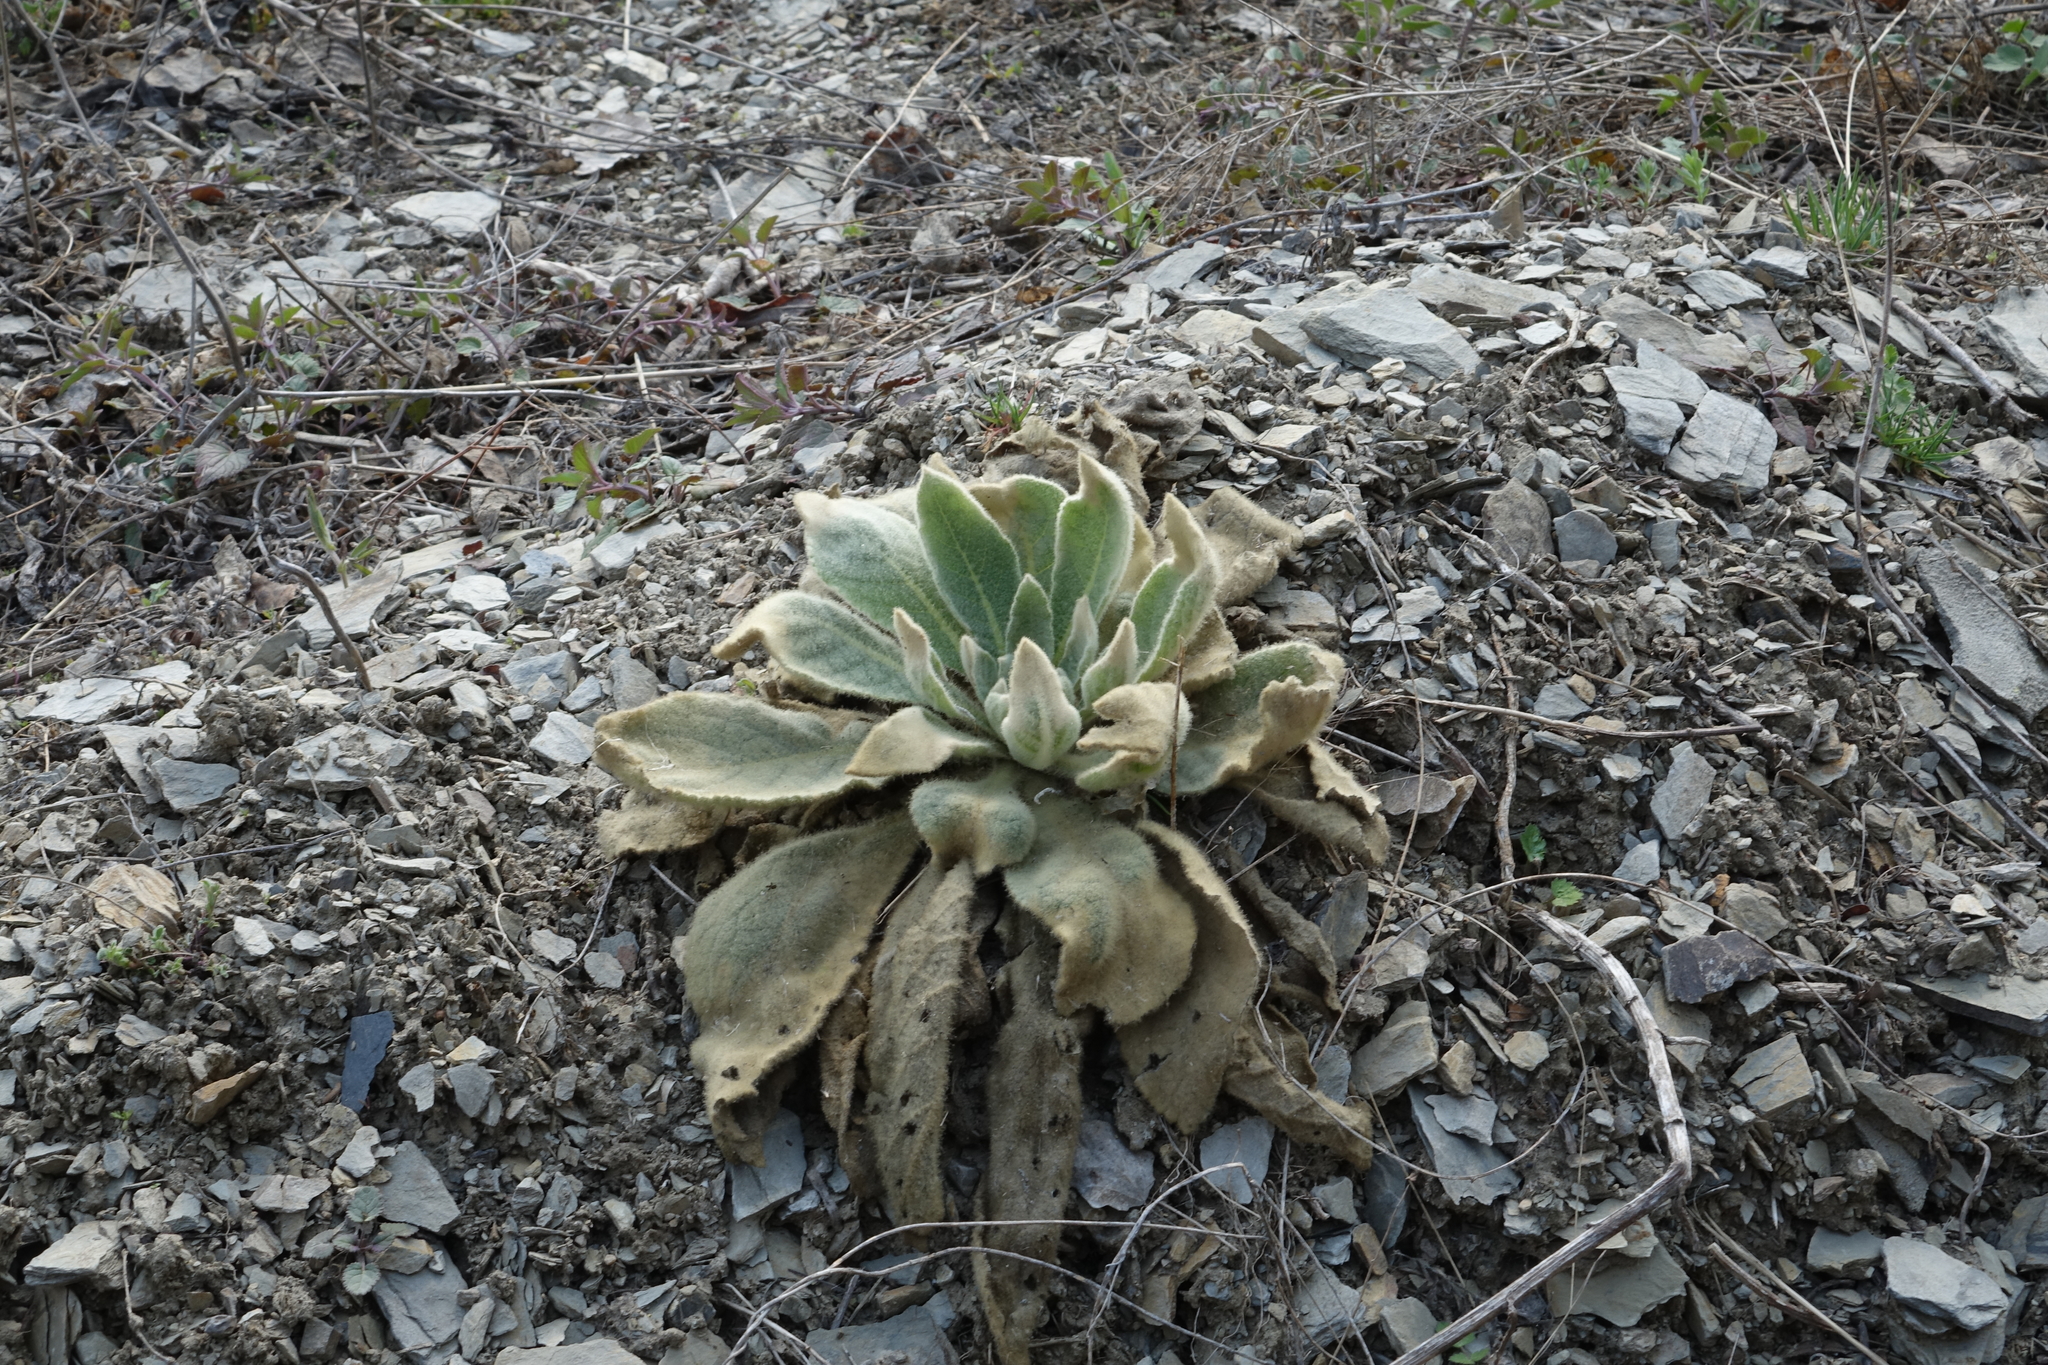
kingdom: Plantae
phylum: Tracheophyta
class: Magnoliopsida
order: Lamiales
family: Scrophulariaceae
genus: Verbascum
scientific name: Verbascum thapsus
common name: Common mullein
